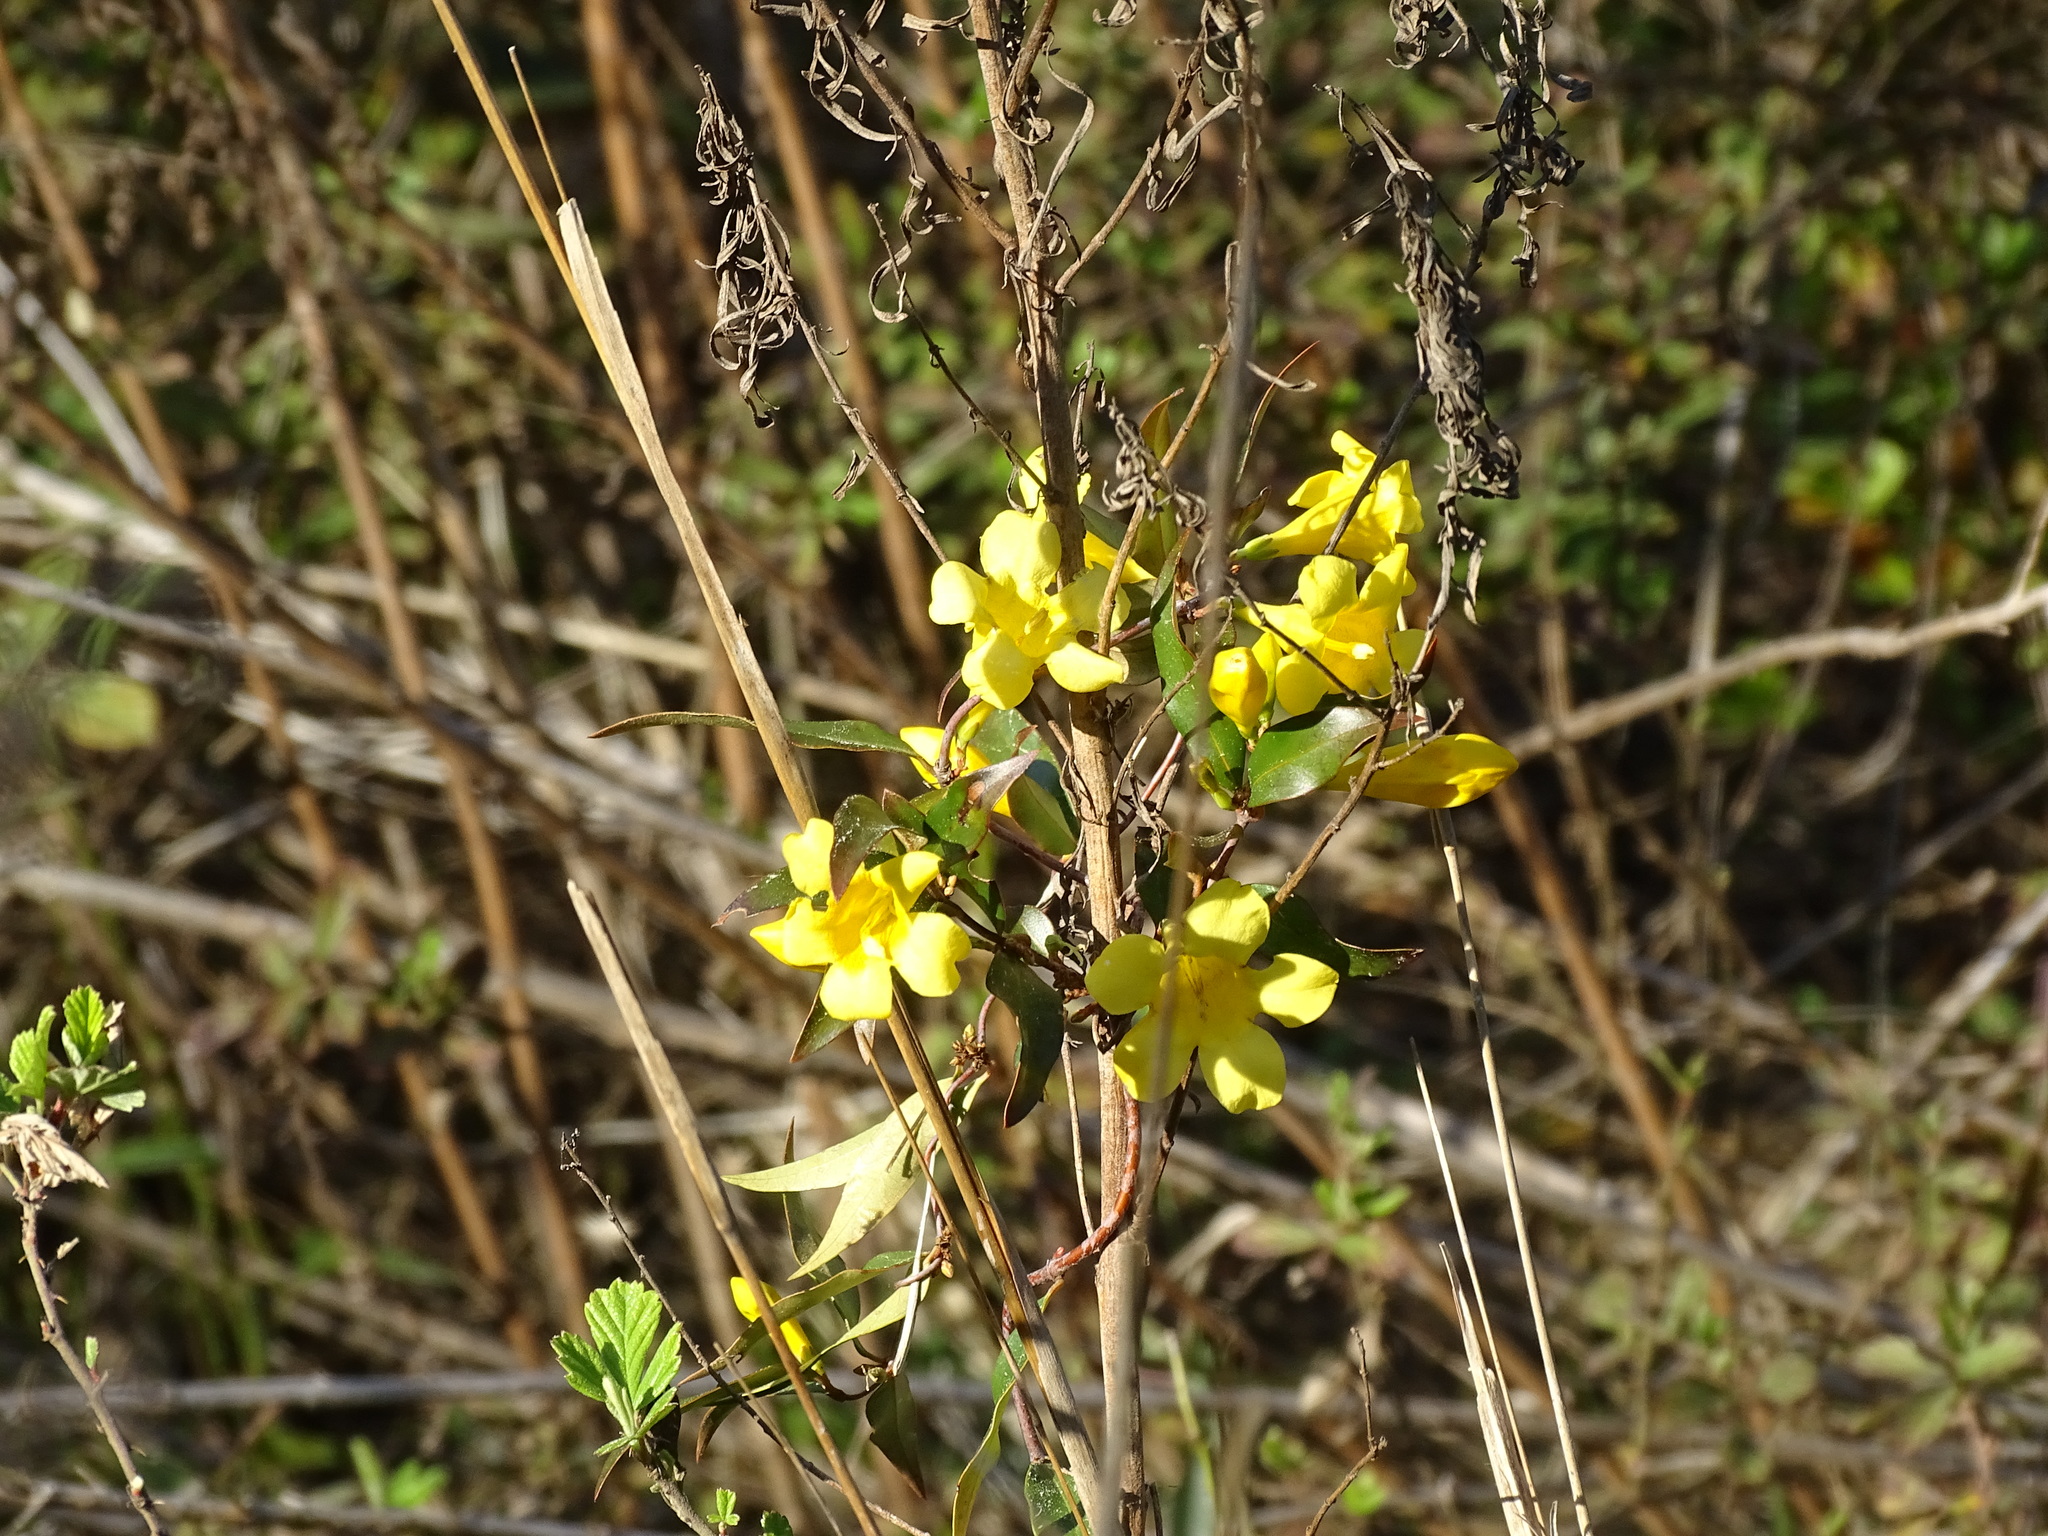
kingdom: Plantae
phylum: Tracheophyta
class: Magnoliopsida
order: Gentianales
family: Gelsemiaceae
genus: Gelsemium
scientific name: Gelsemium sempervirens
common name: Carolina-jasmine
